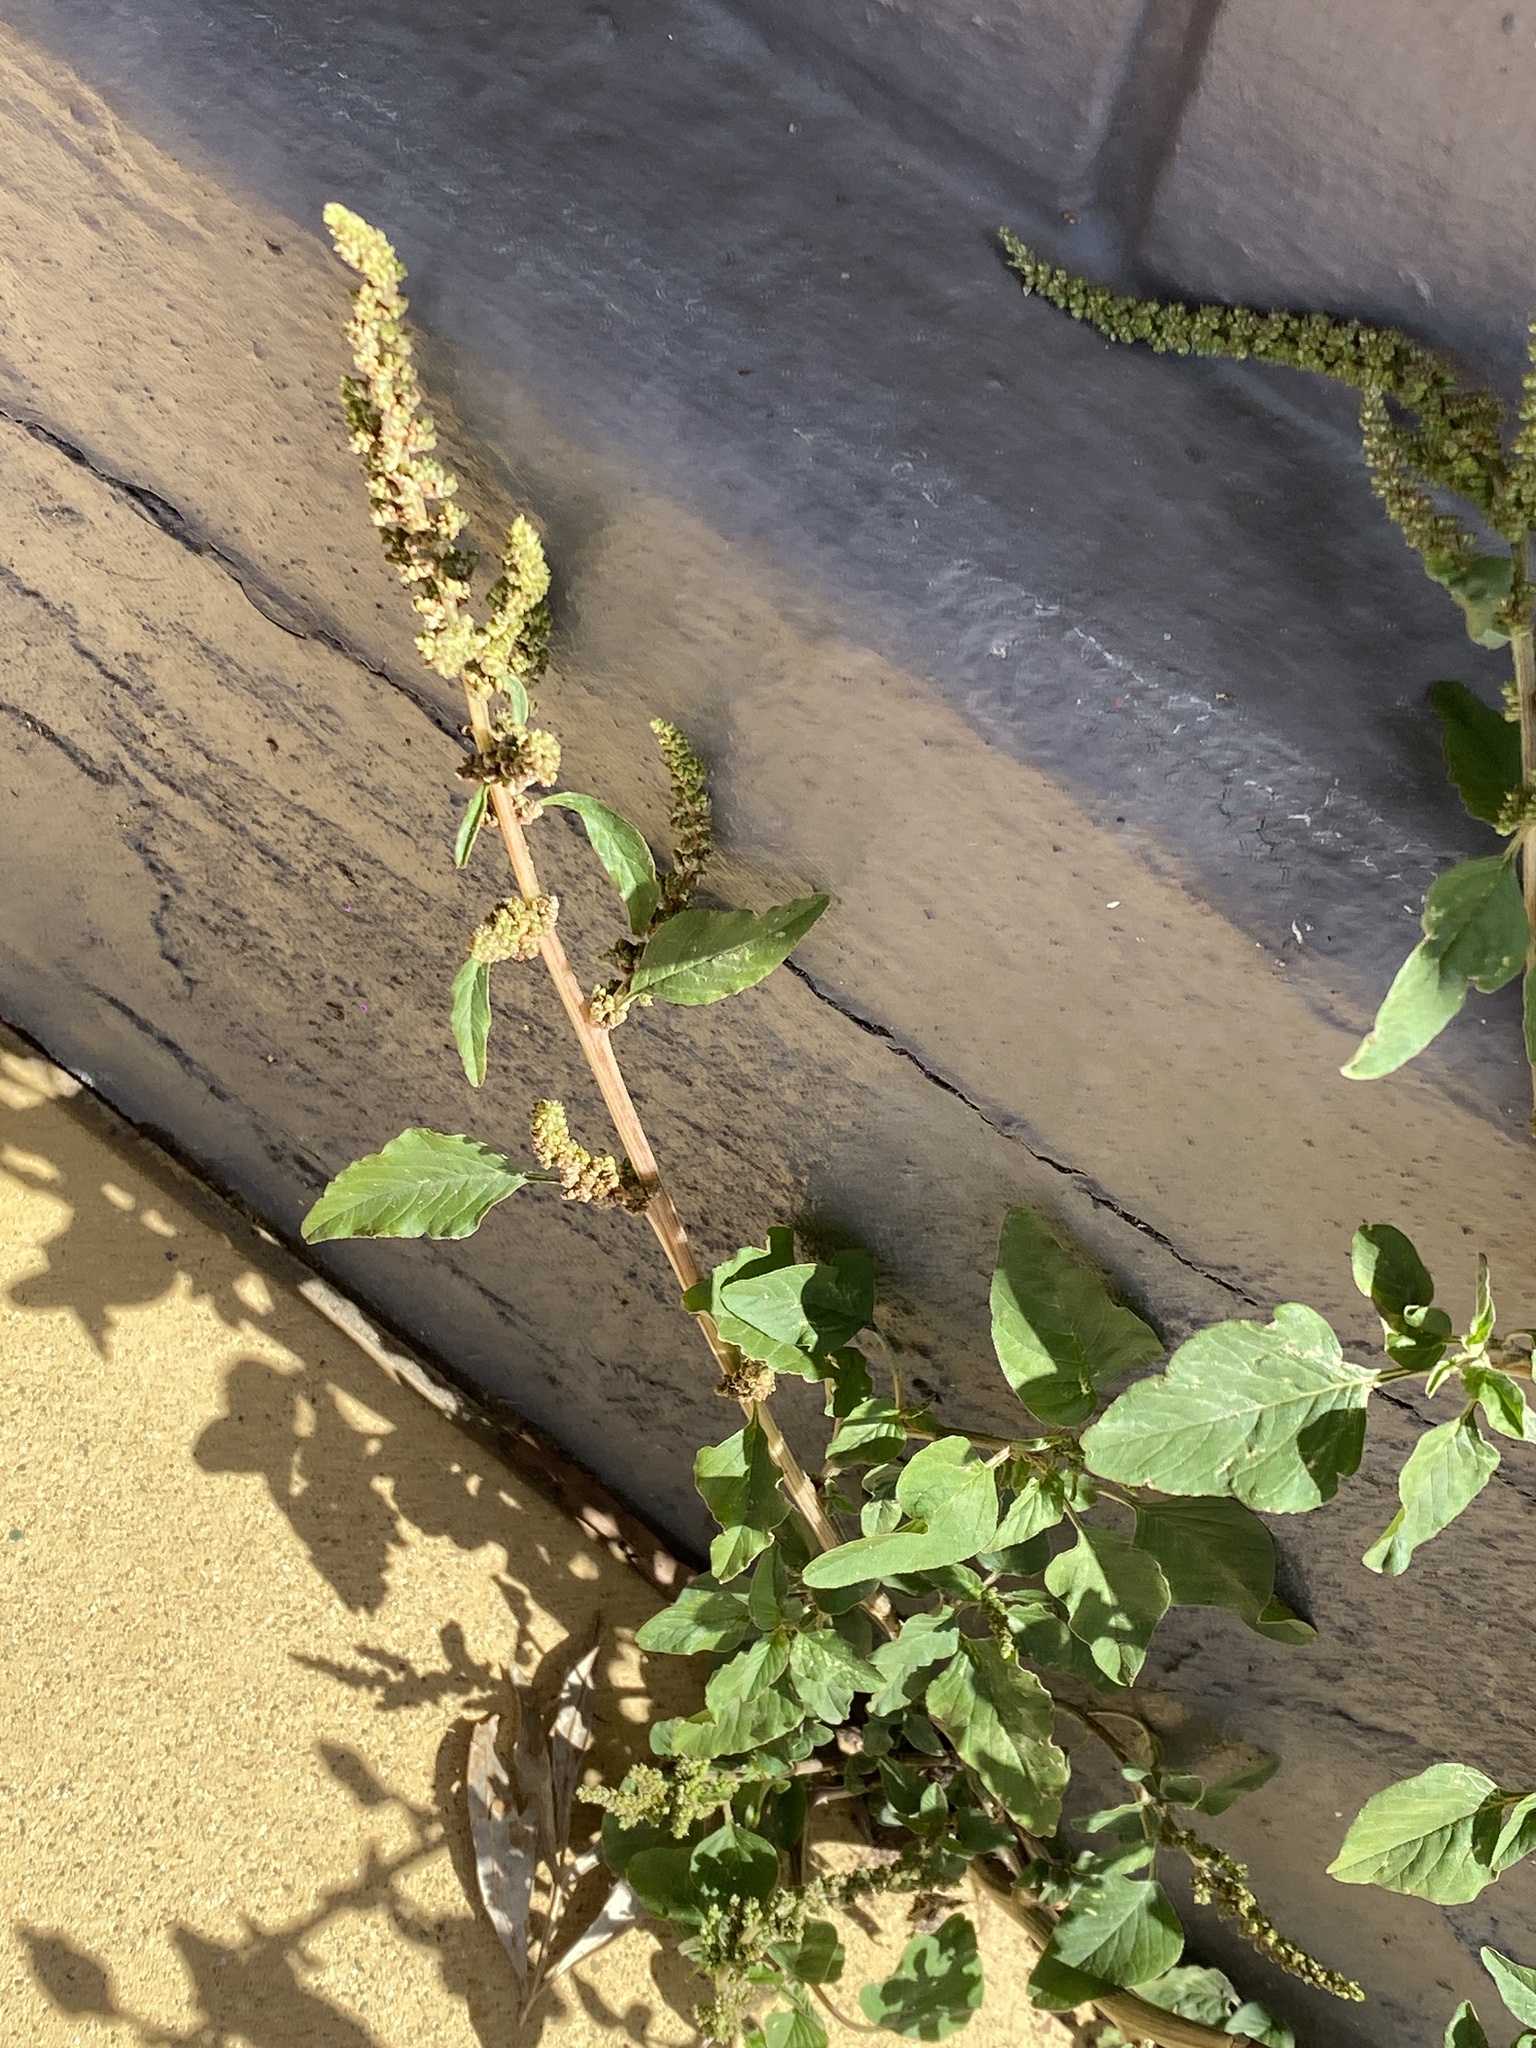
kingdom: Plantae
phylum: Tracheophyta
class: Magnoliopsida
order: Caryophyllales
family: Amaranthaceae
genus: Amaranthus
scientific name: Amaranthus viridis
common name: Slender amaranth
